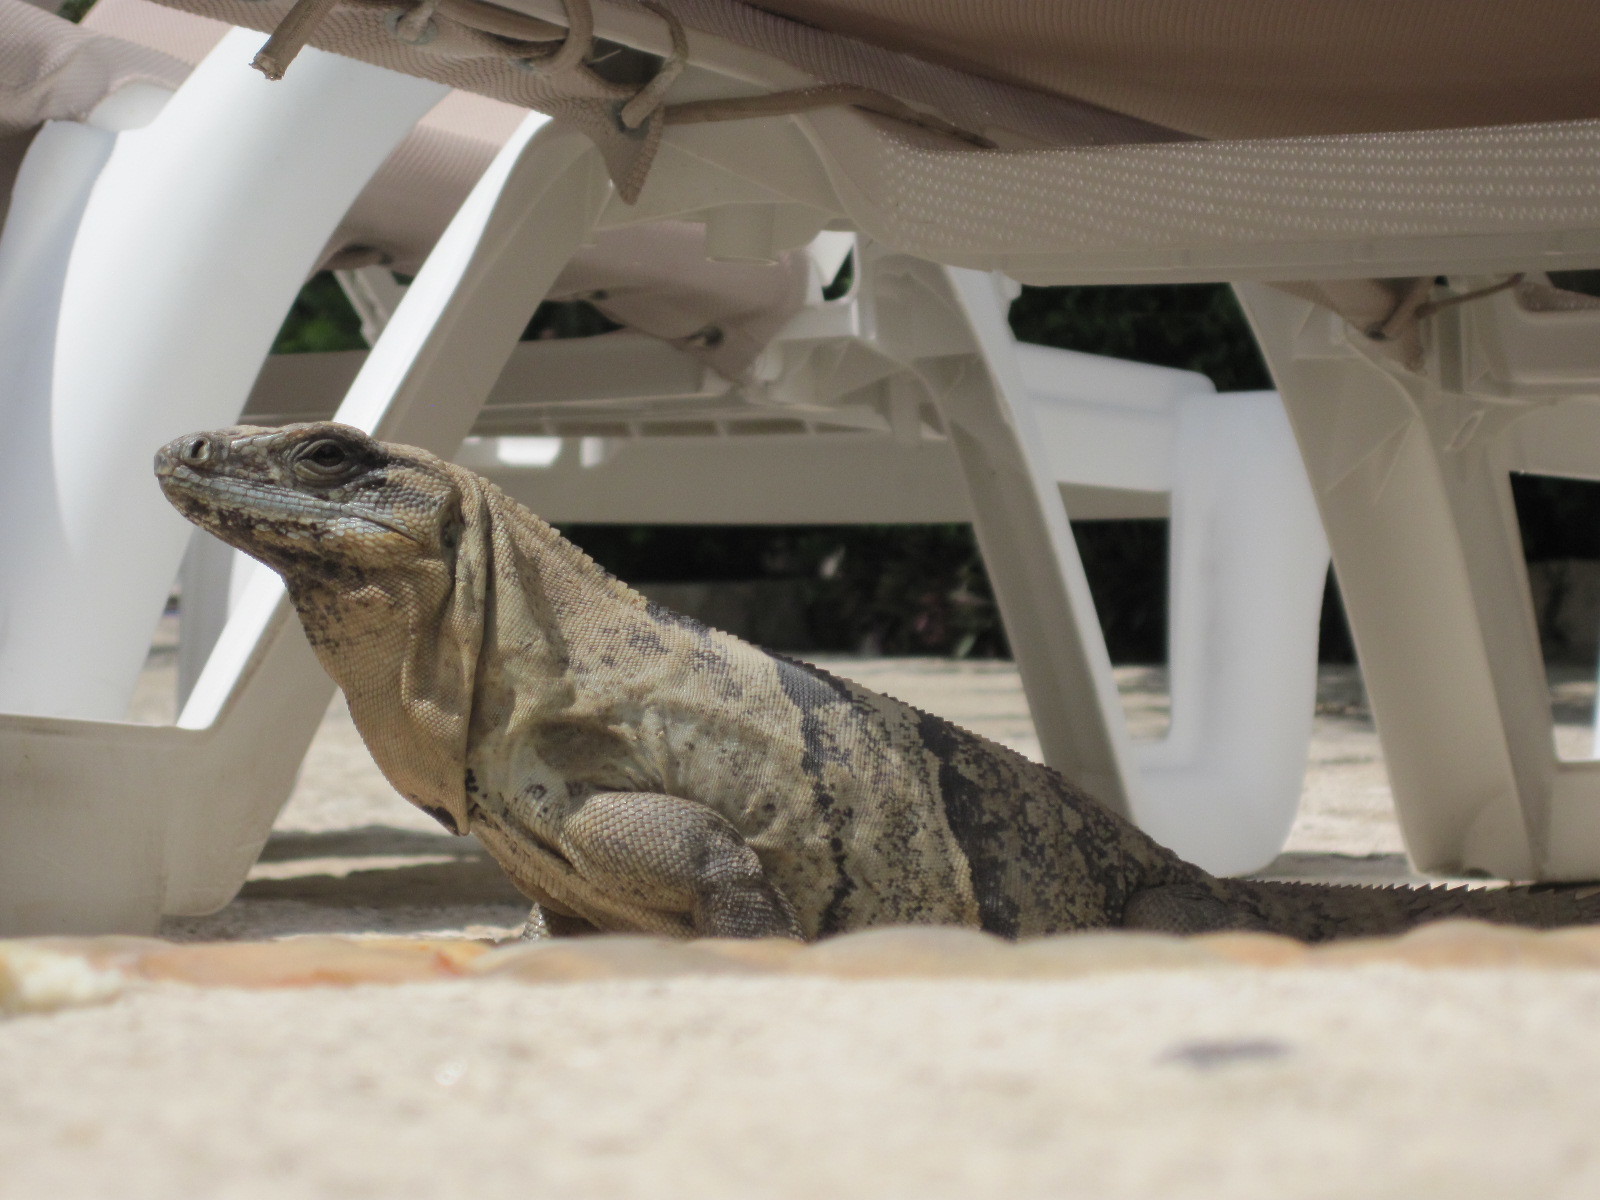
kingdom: Animalia
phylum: Chordata
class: Squamata
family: Iguanidae
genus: Ctenosaura
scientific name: Ctenosaura similis
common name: Black spiny-tailed iguana
